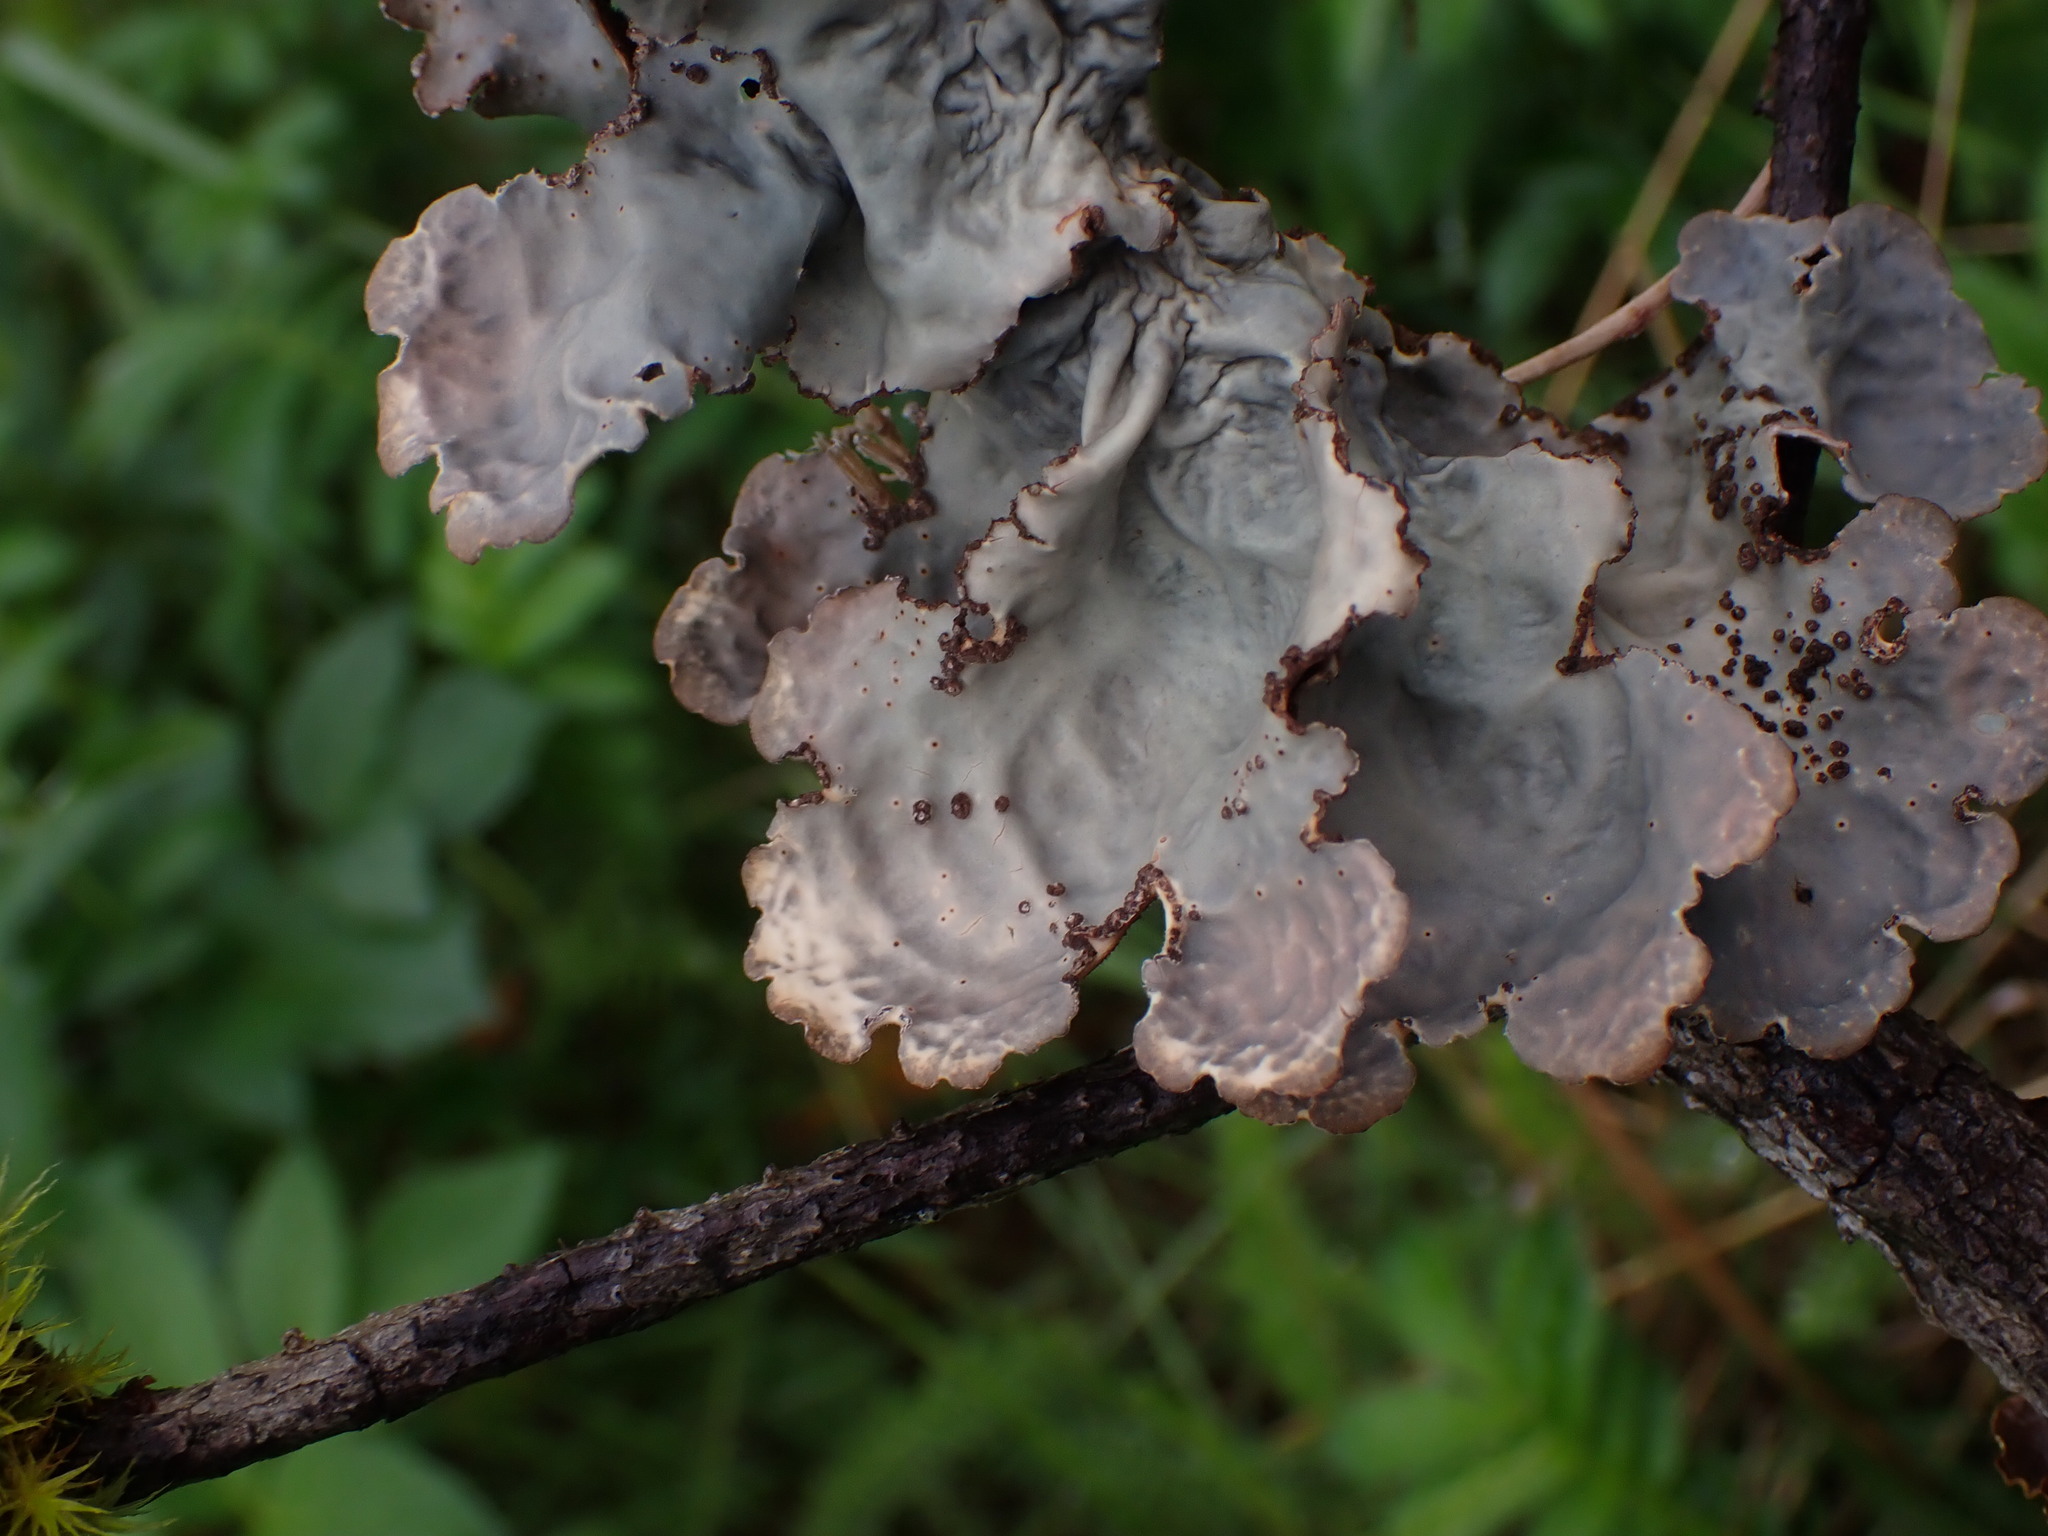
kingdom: Fungi
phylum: Ascomycota
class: Lecanoromycetes
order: Peltigerales
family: Lobariaceae
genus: Lobarina
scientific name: Lobarina scrobiculata
